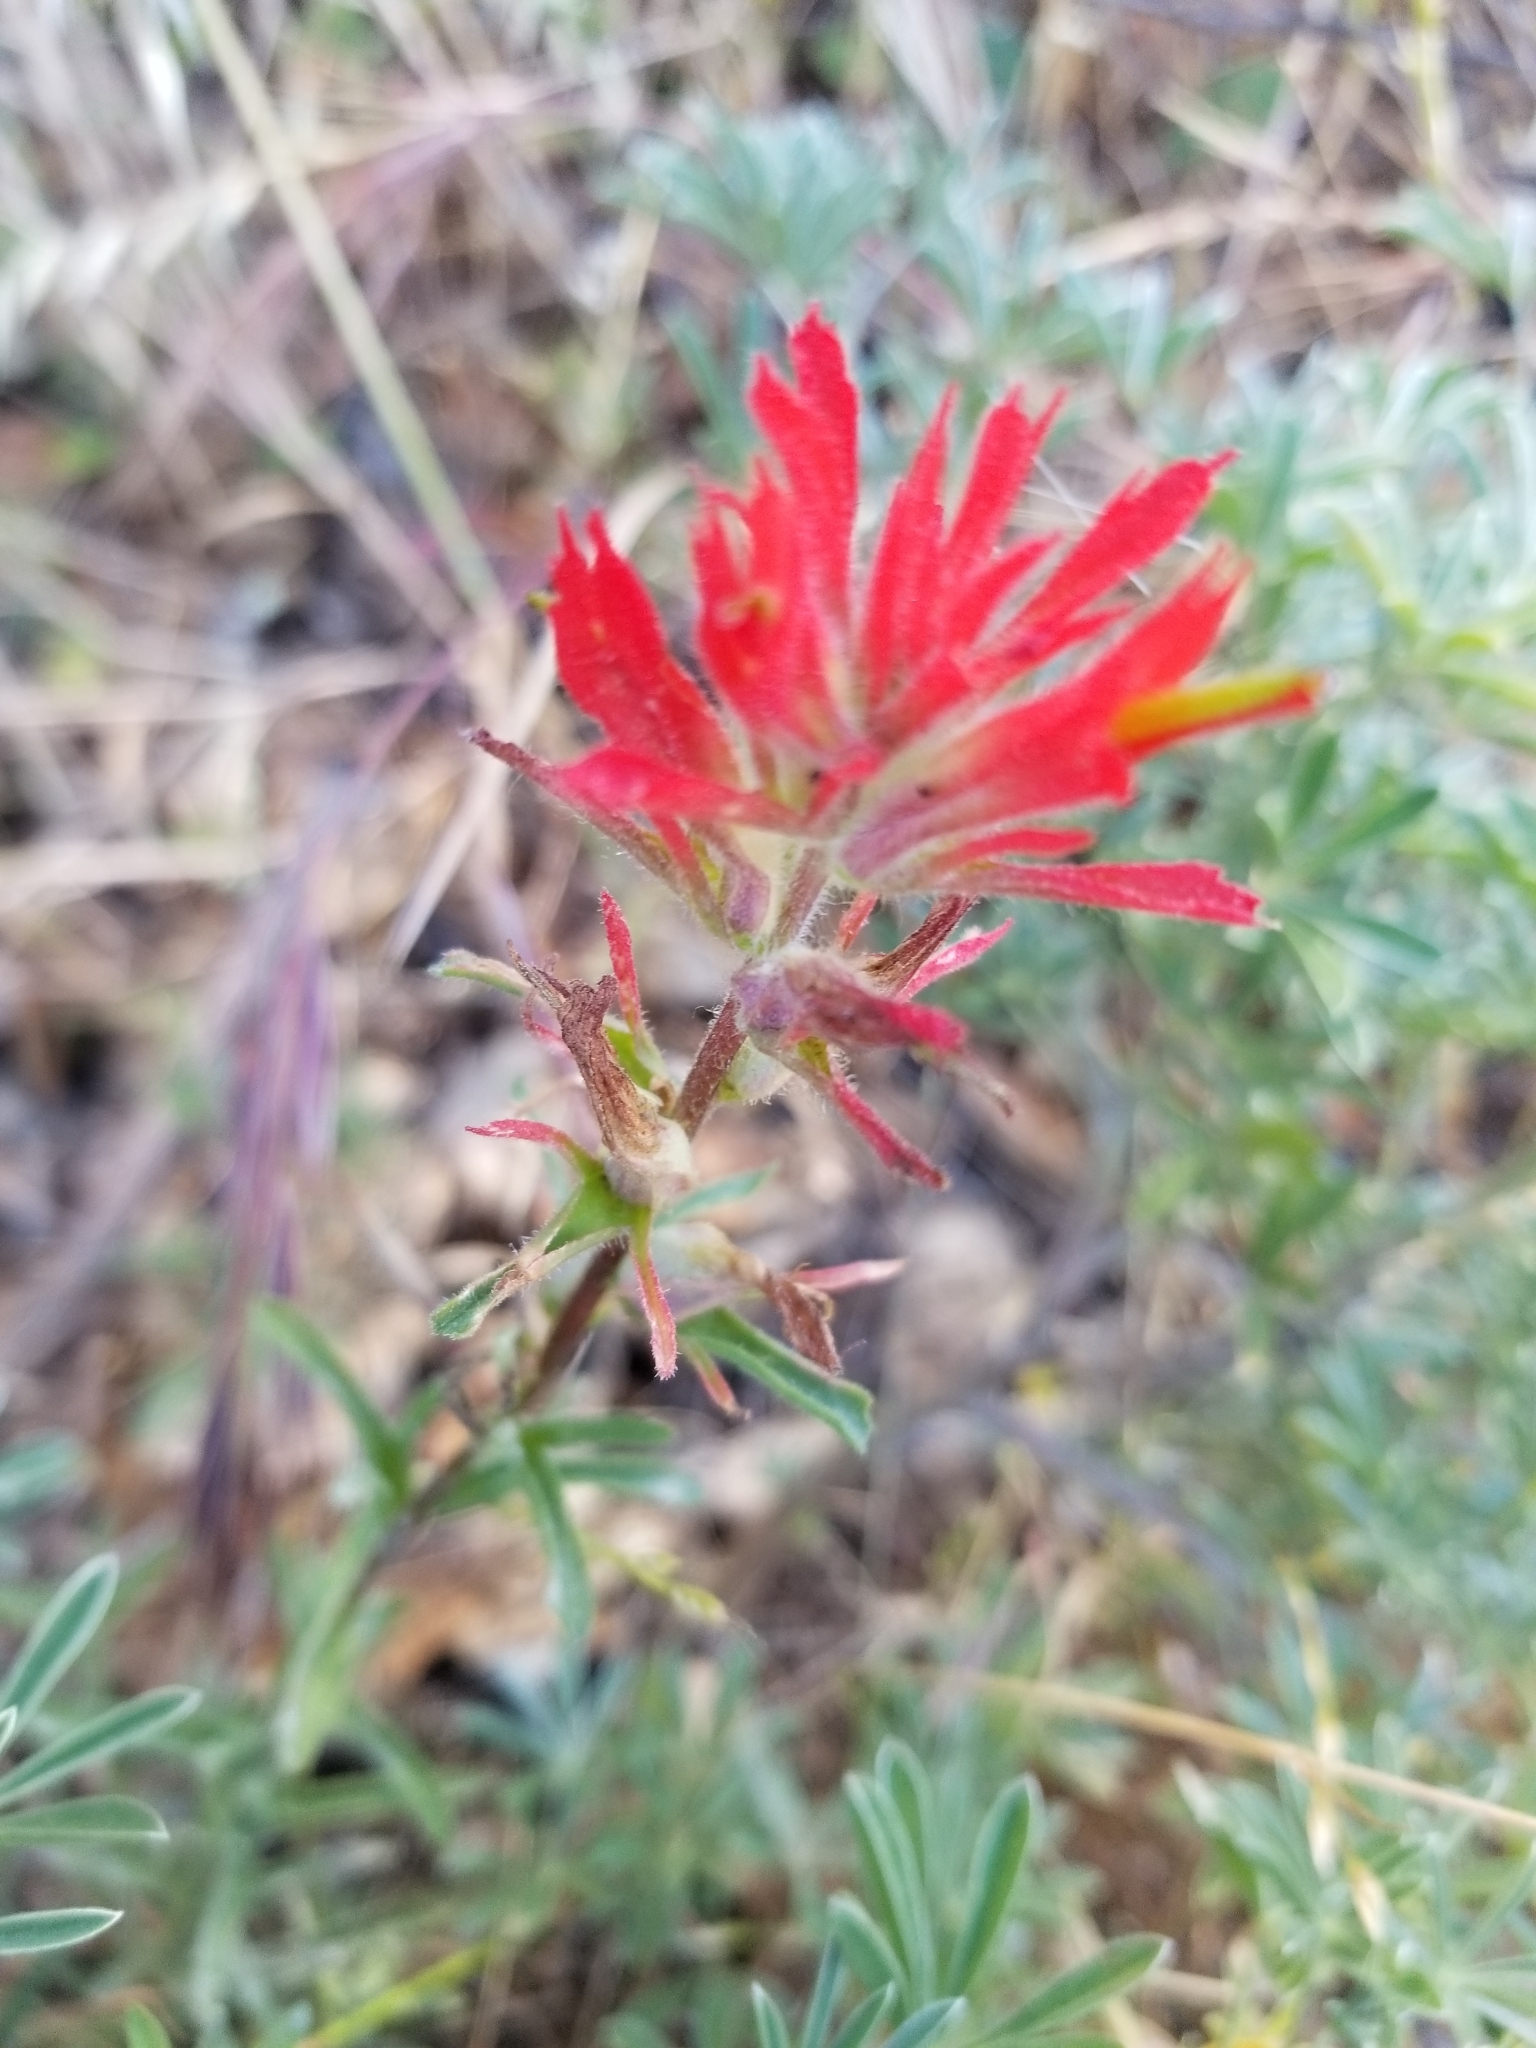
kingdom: Plantae
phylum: Tracheophyta
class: Magnoliopsida
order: Lamiales
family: Orobanchaceae
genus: Castilleja
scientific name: Castilleja affinis
